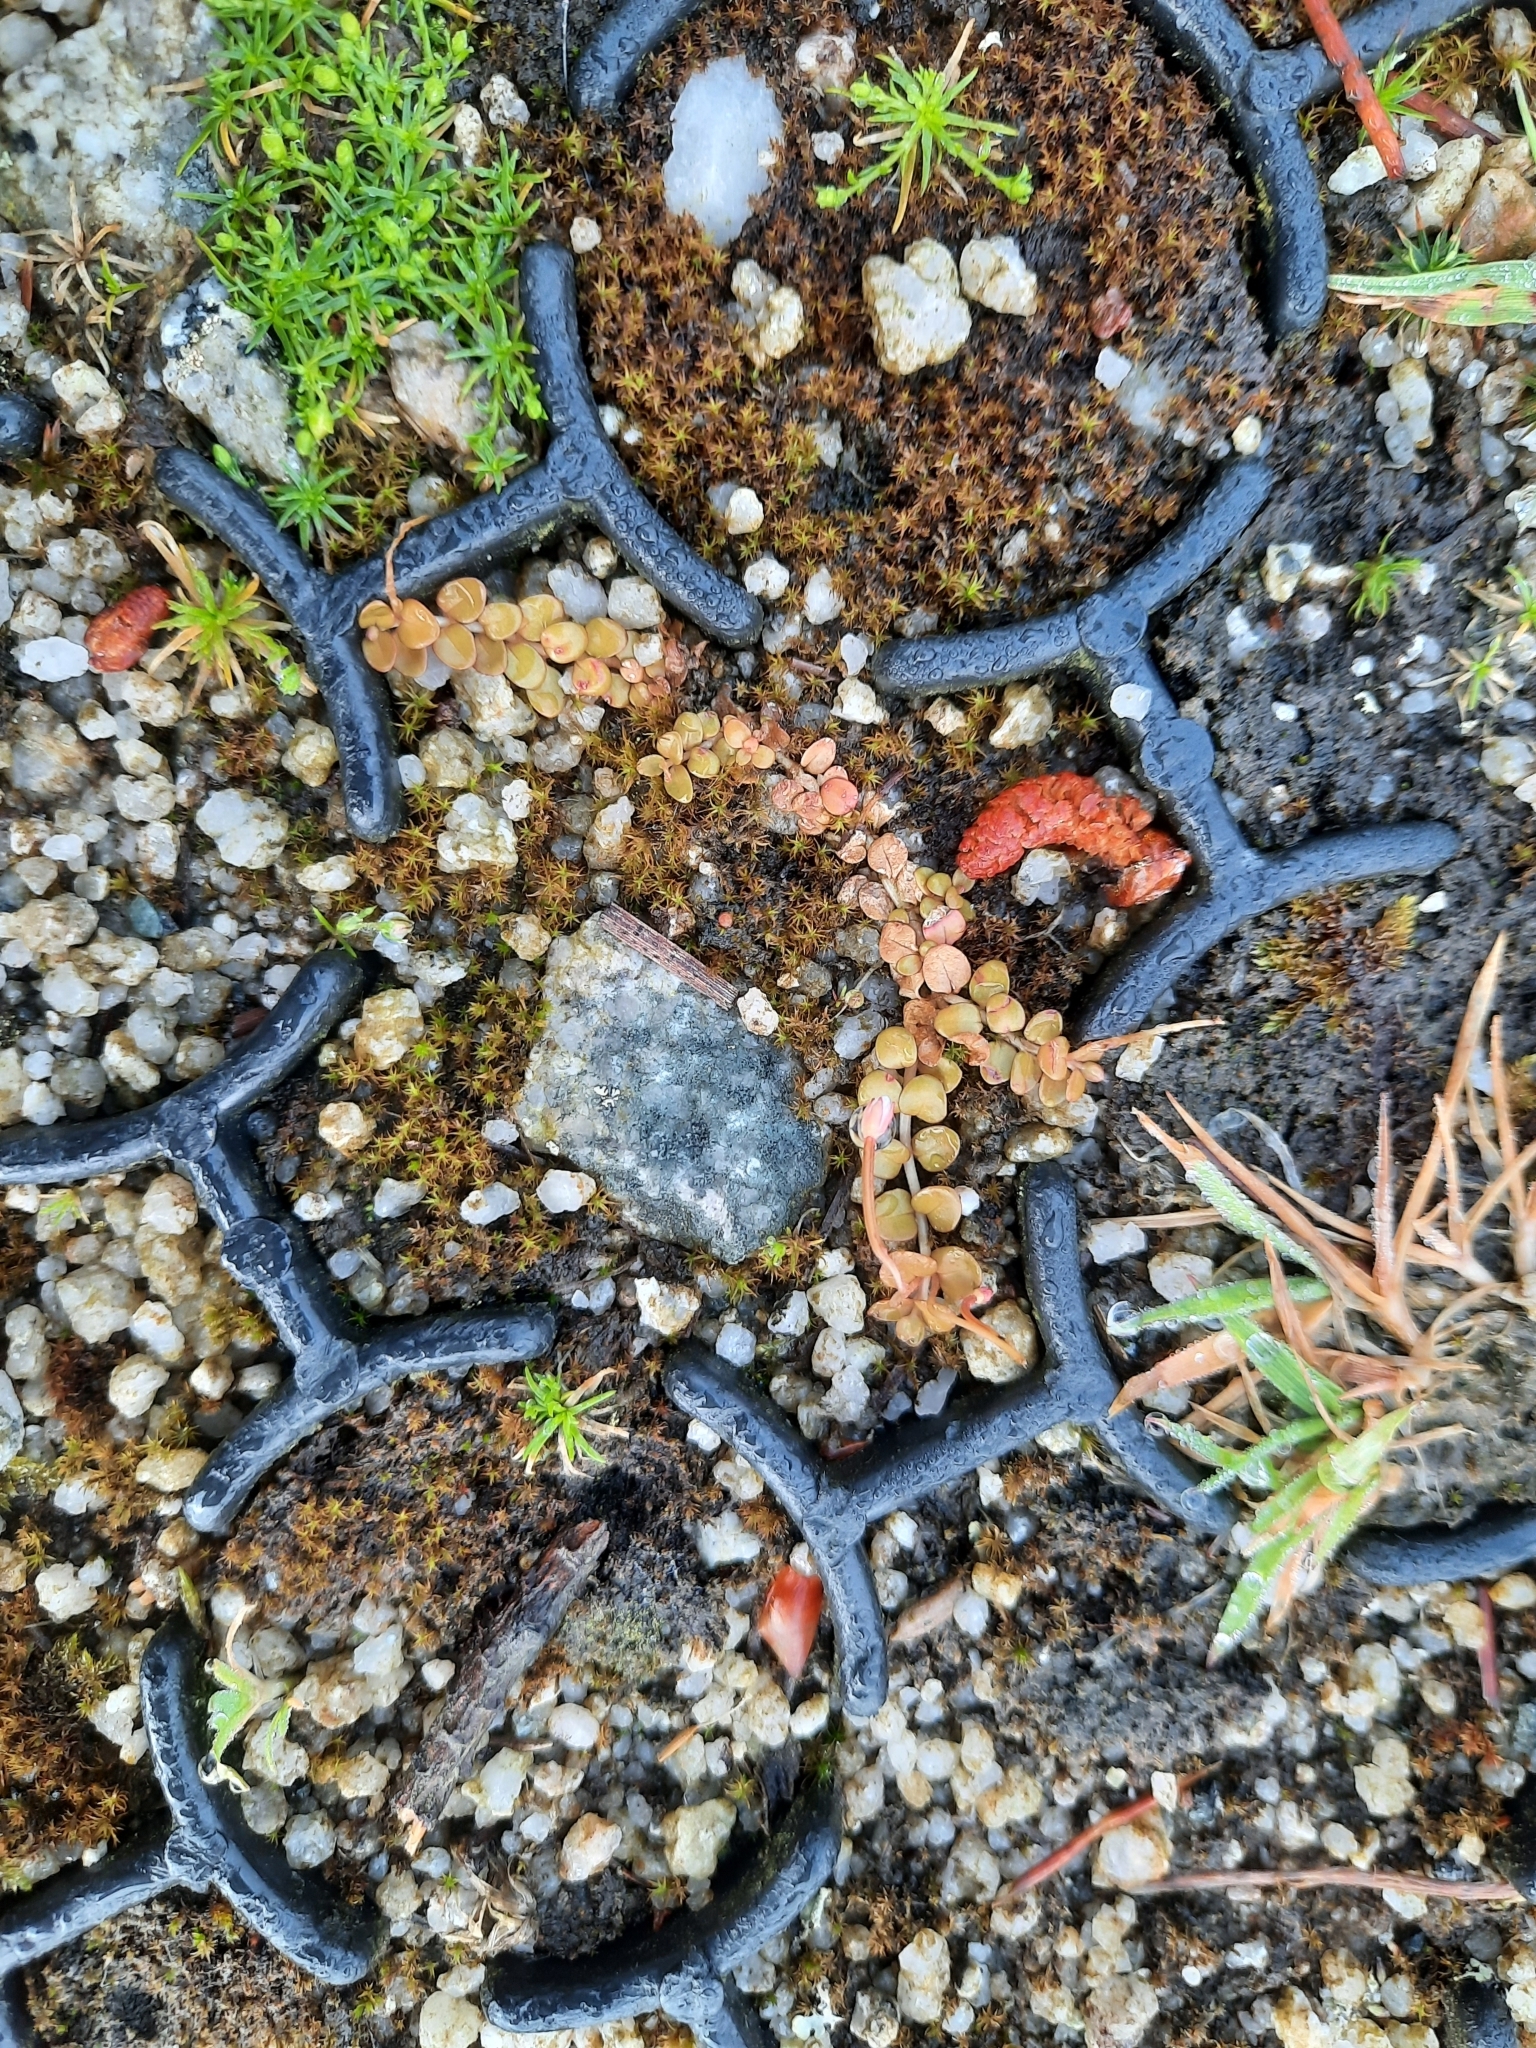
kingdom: Plantae
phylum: Tracheophyta
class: Magnoliopsida
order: Myrtales
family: Onagraceae
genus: Epilobium
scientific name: Epilobium brunnescens
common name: New zealand willowherb
